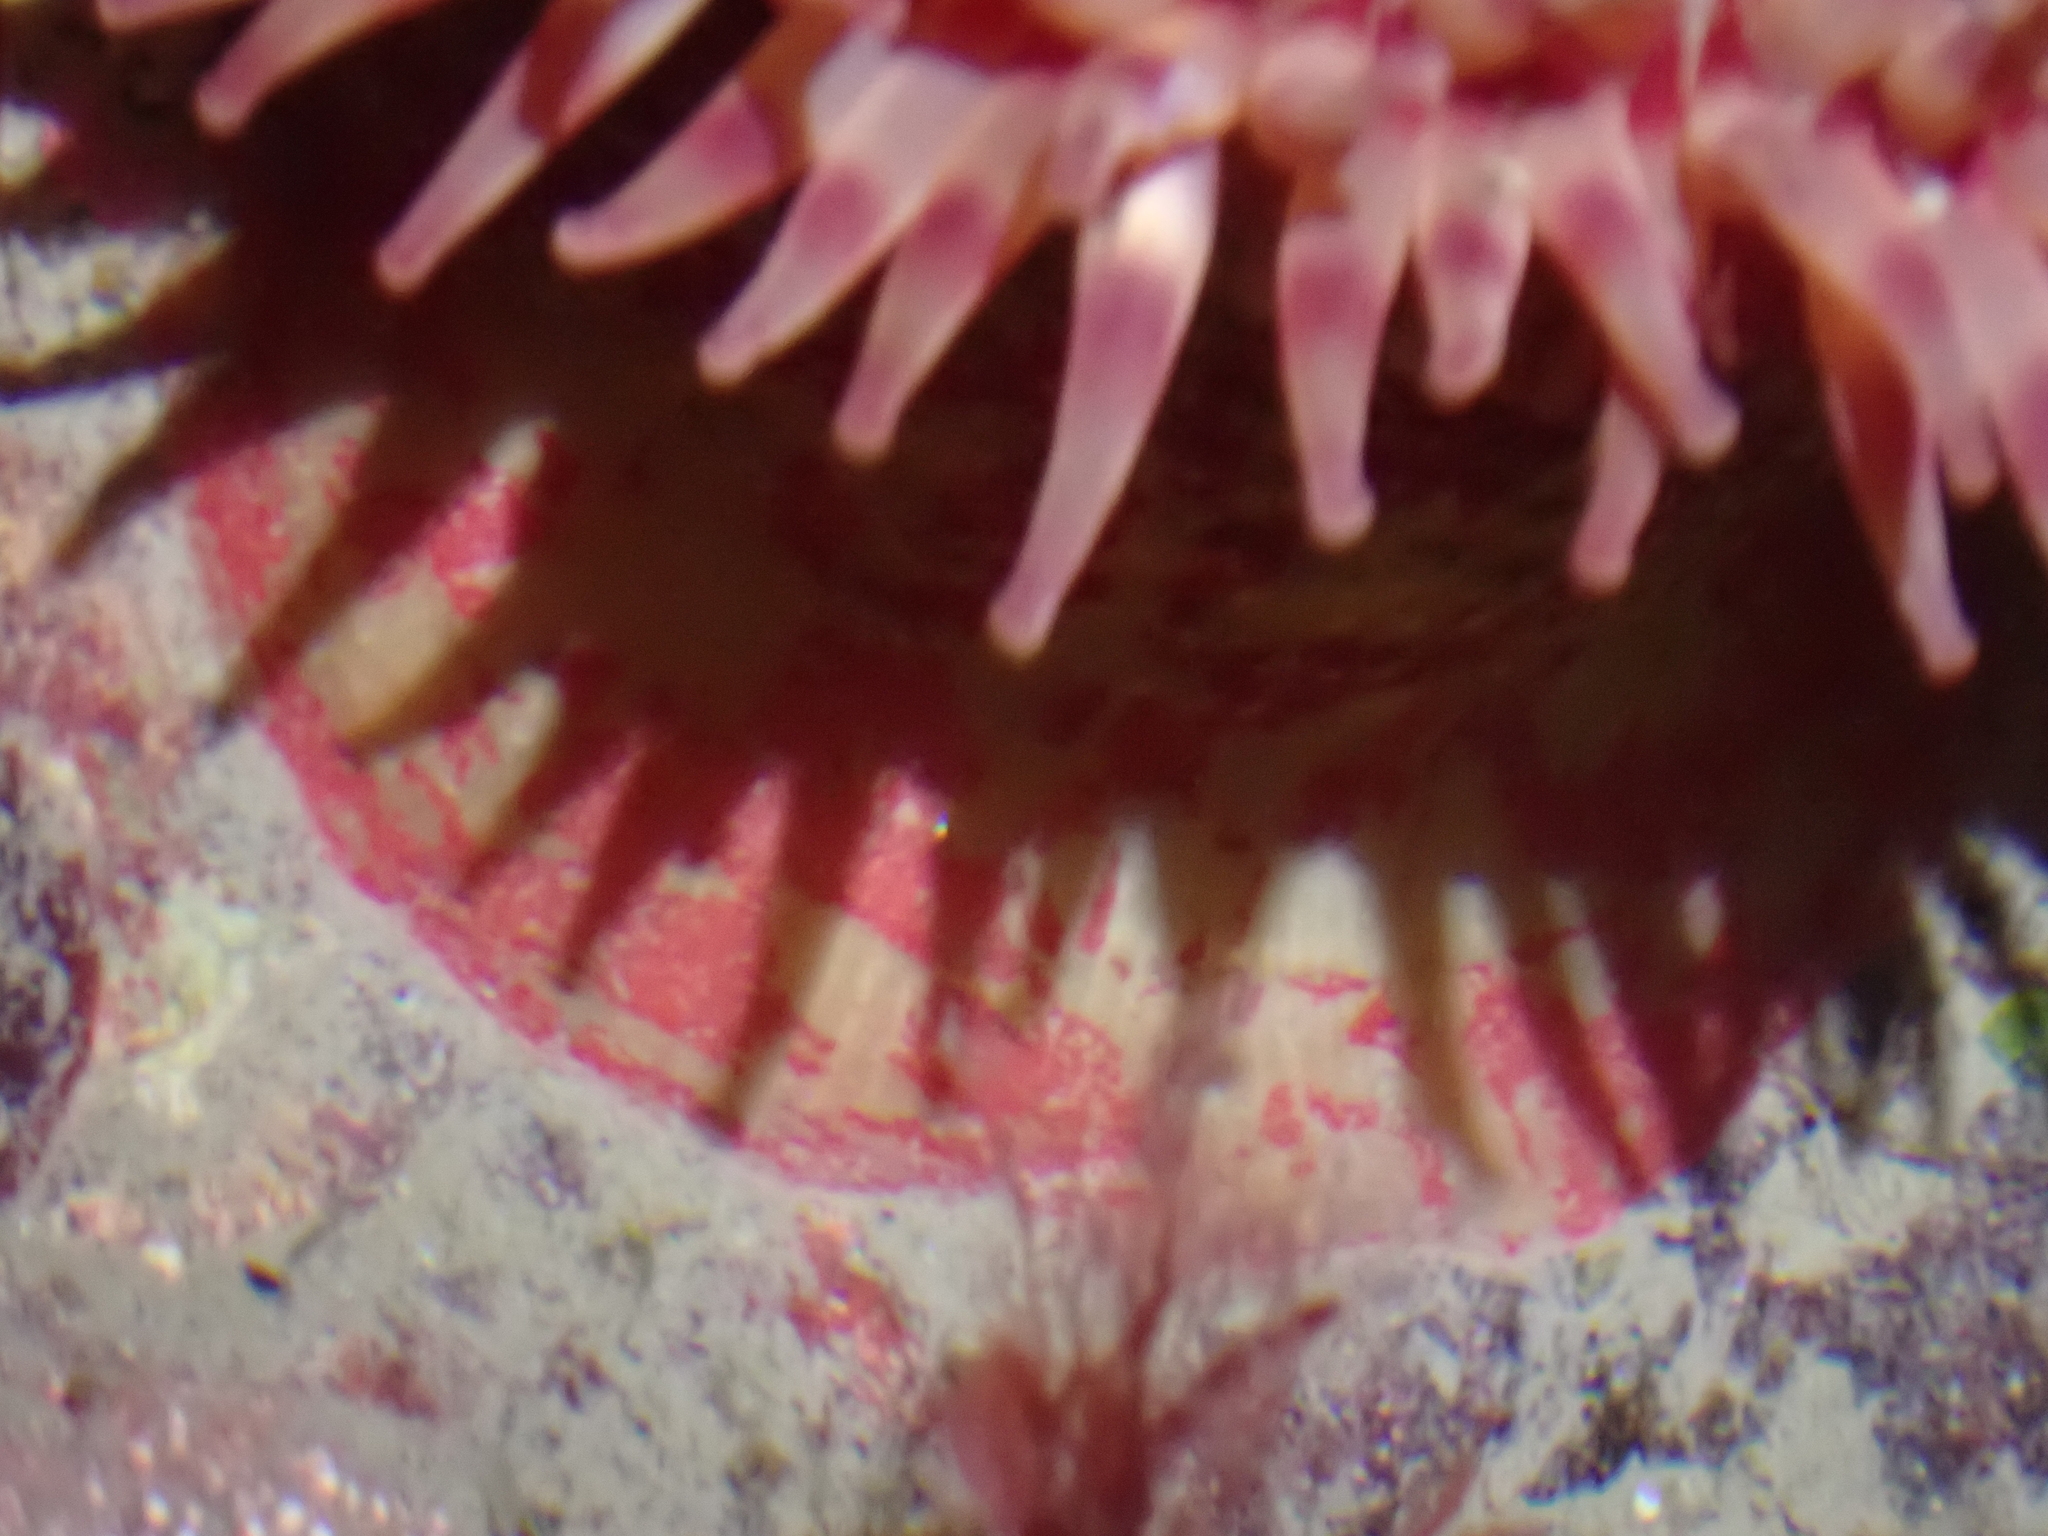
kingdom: Animalia
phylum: Cnidaria
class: Anthozoa
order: Actiniaria
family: Actiniidae
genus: Urticina
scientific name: Urticina grebelnyi
